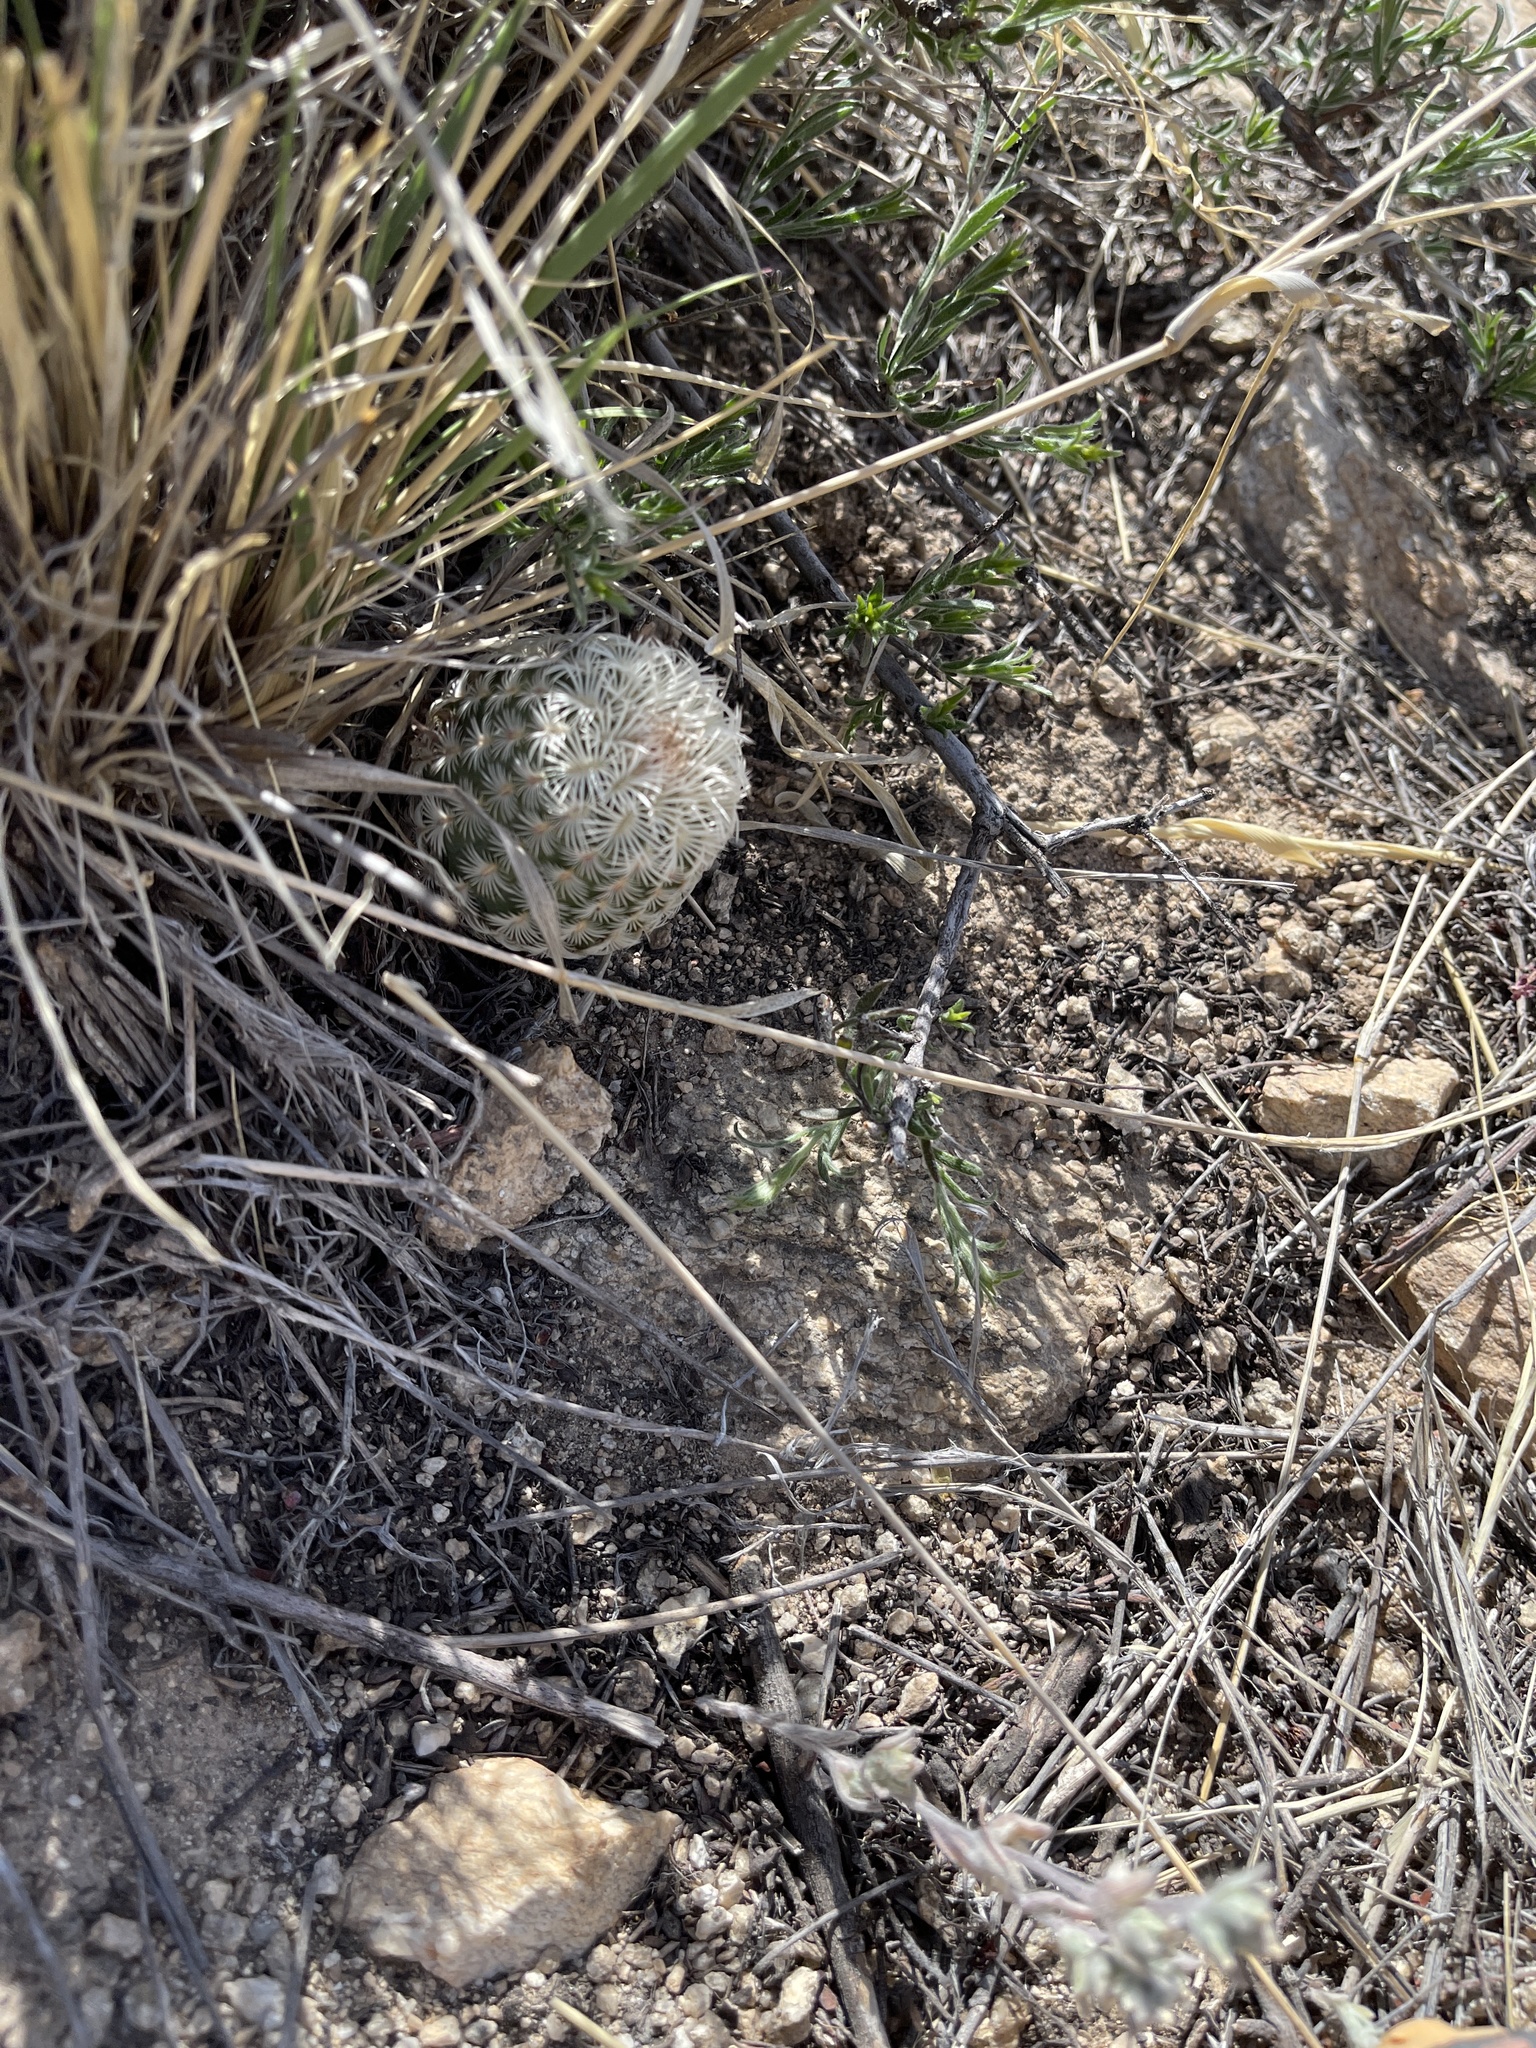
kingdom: Plantae
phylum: Tracheophyta
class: Magnoliopsida
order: Caryophyllales
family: Cactaceae
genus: Echinocereus
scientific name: Echinocereus rigidissimus
